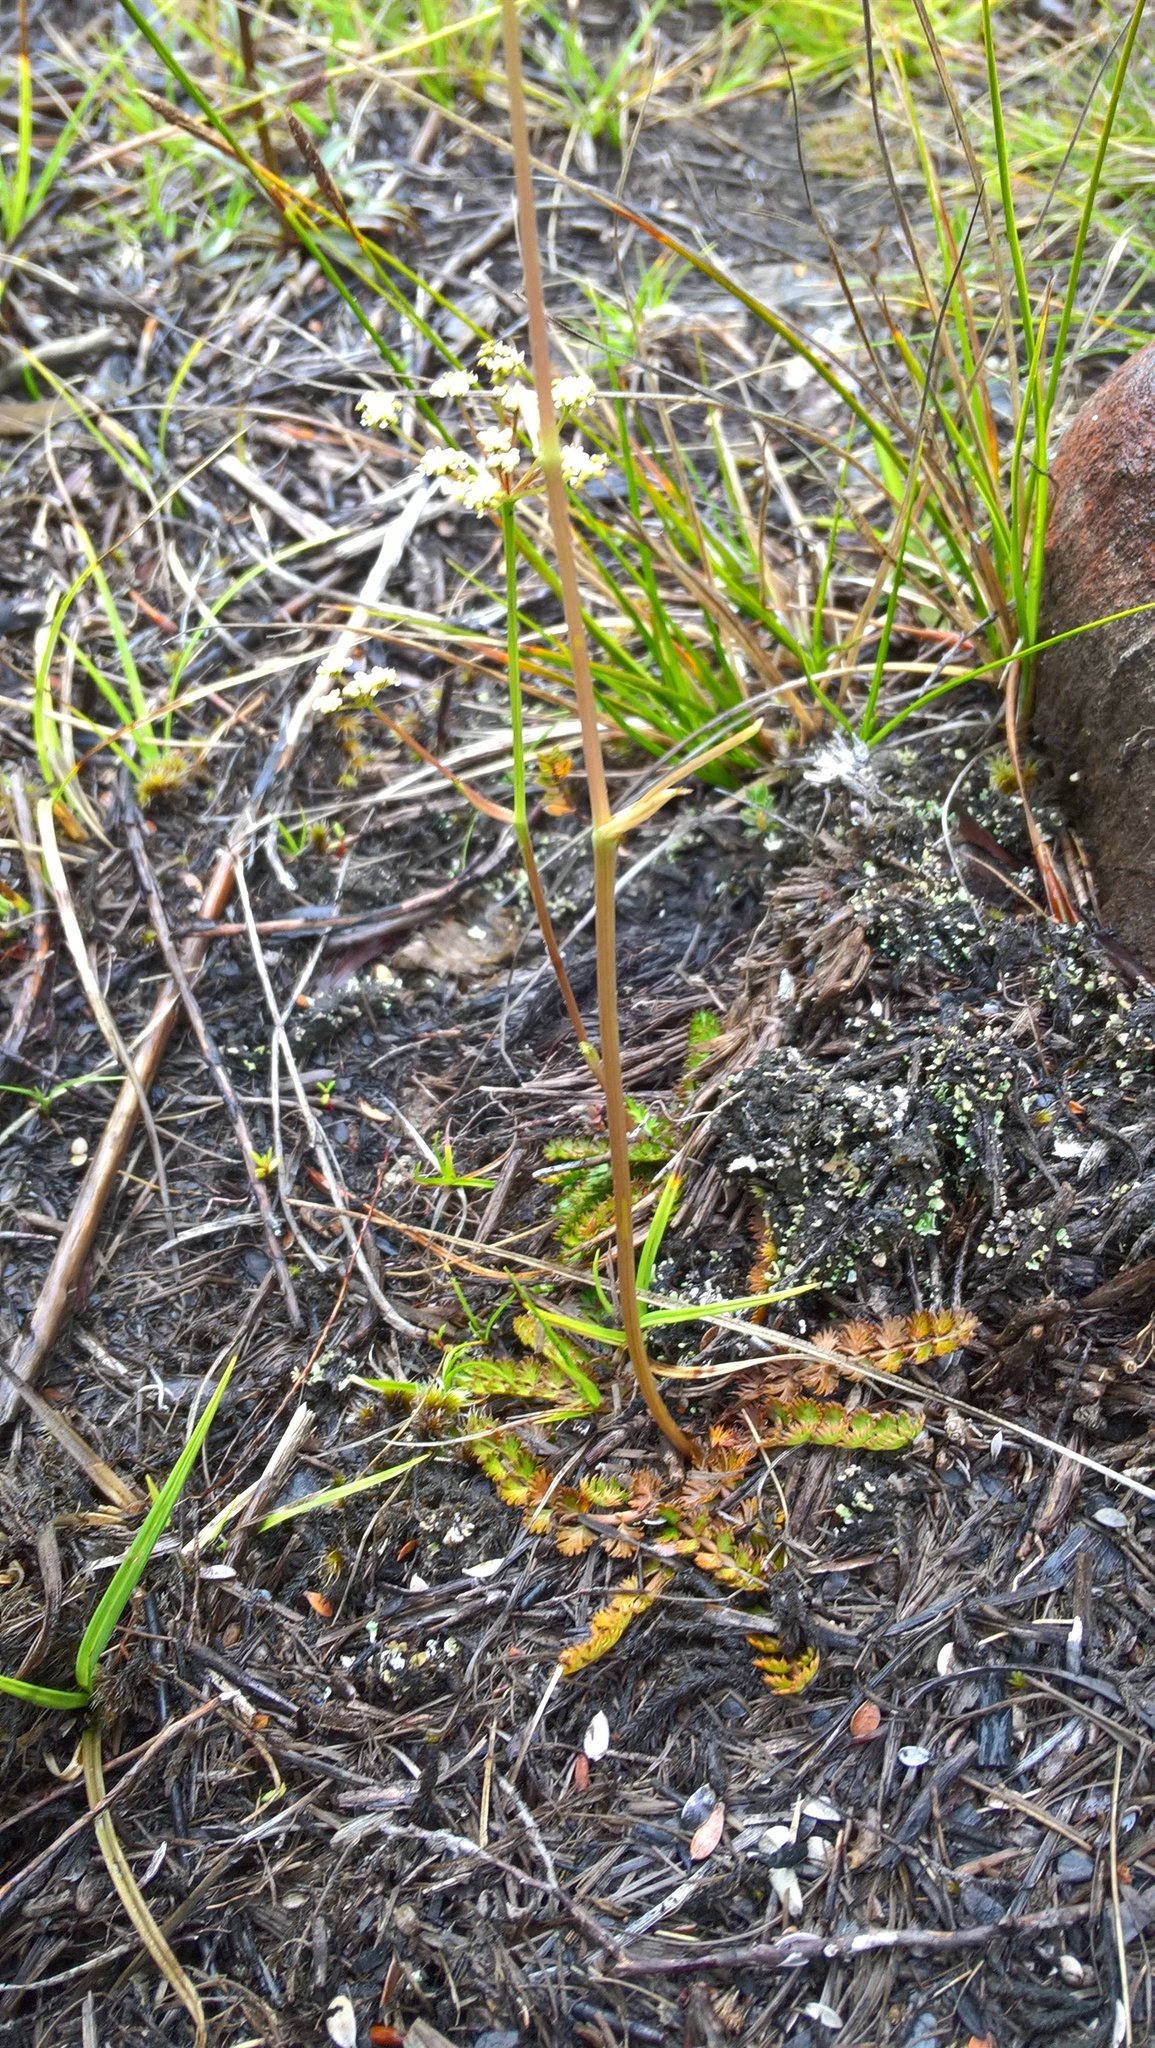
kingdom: Plantae
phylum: Tracheophyta
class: Magnoliopsida
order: Apiales
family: Apiaceae
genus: Anisotome
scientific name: Anisotome aromatica
